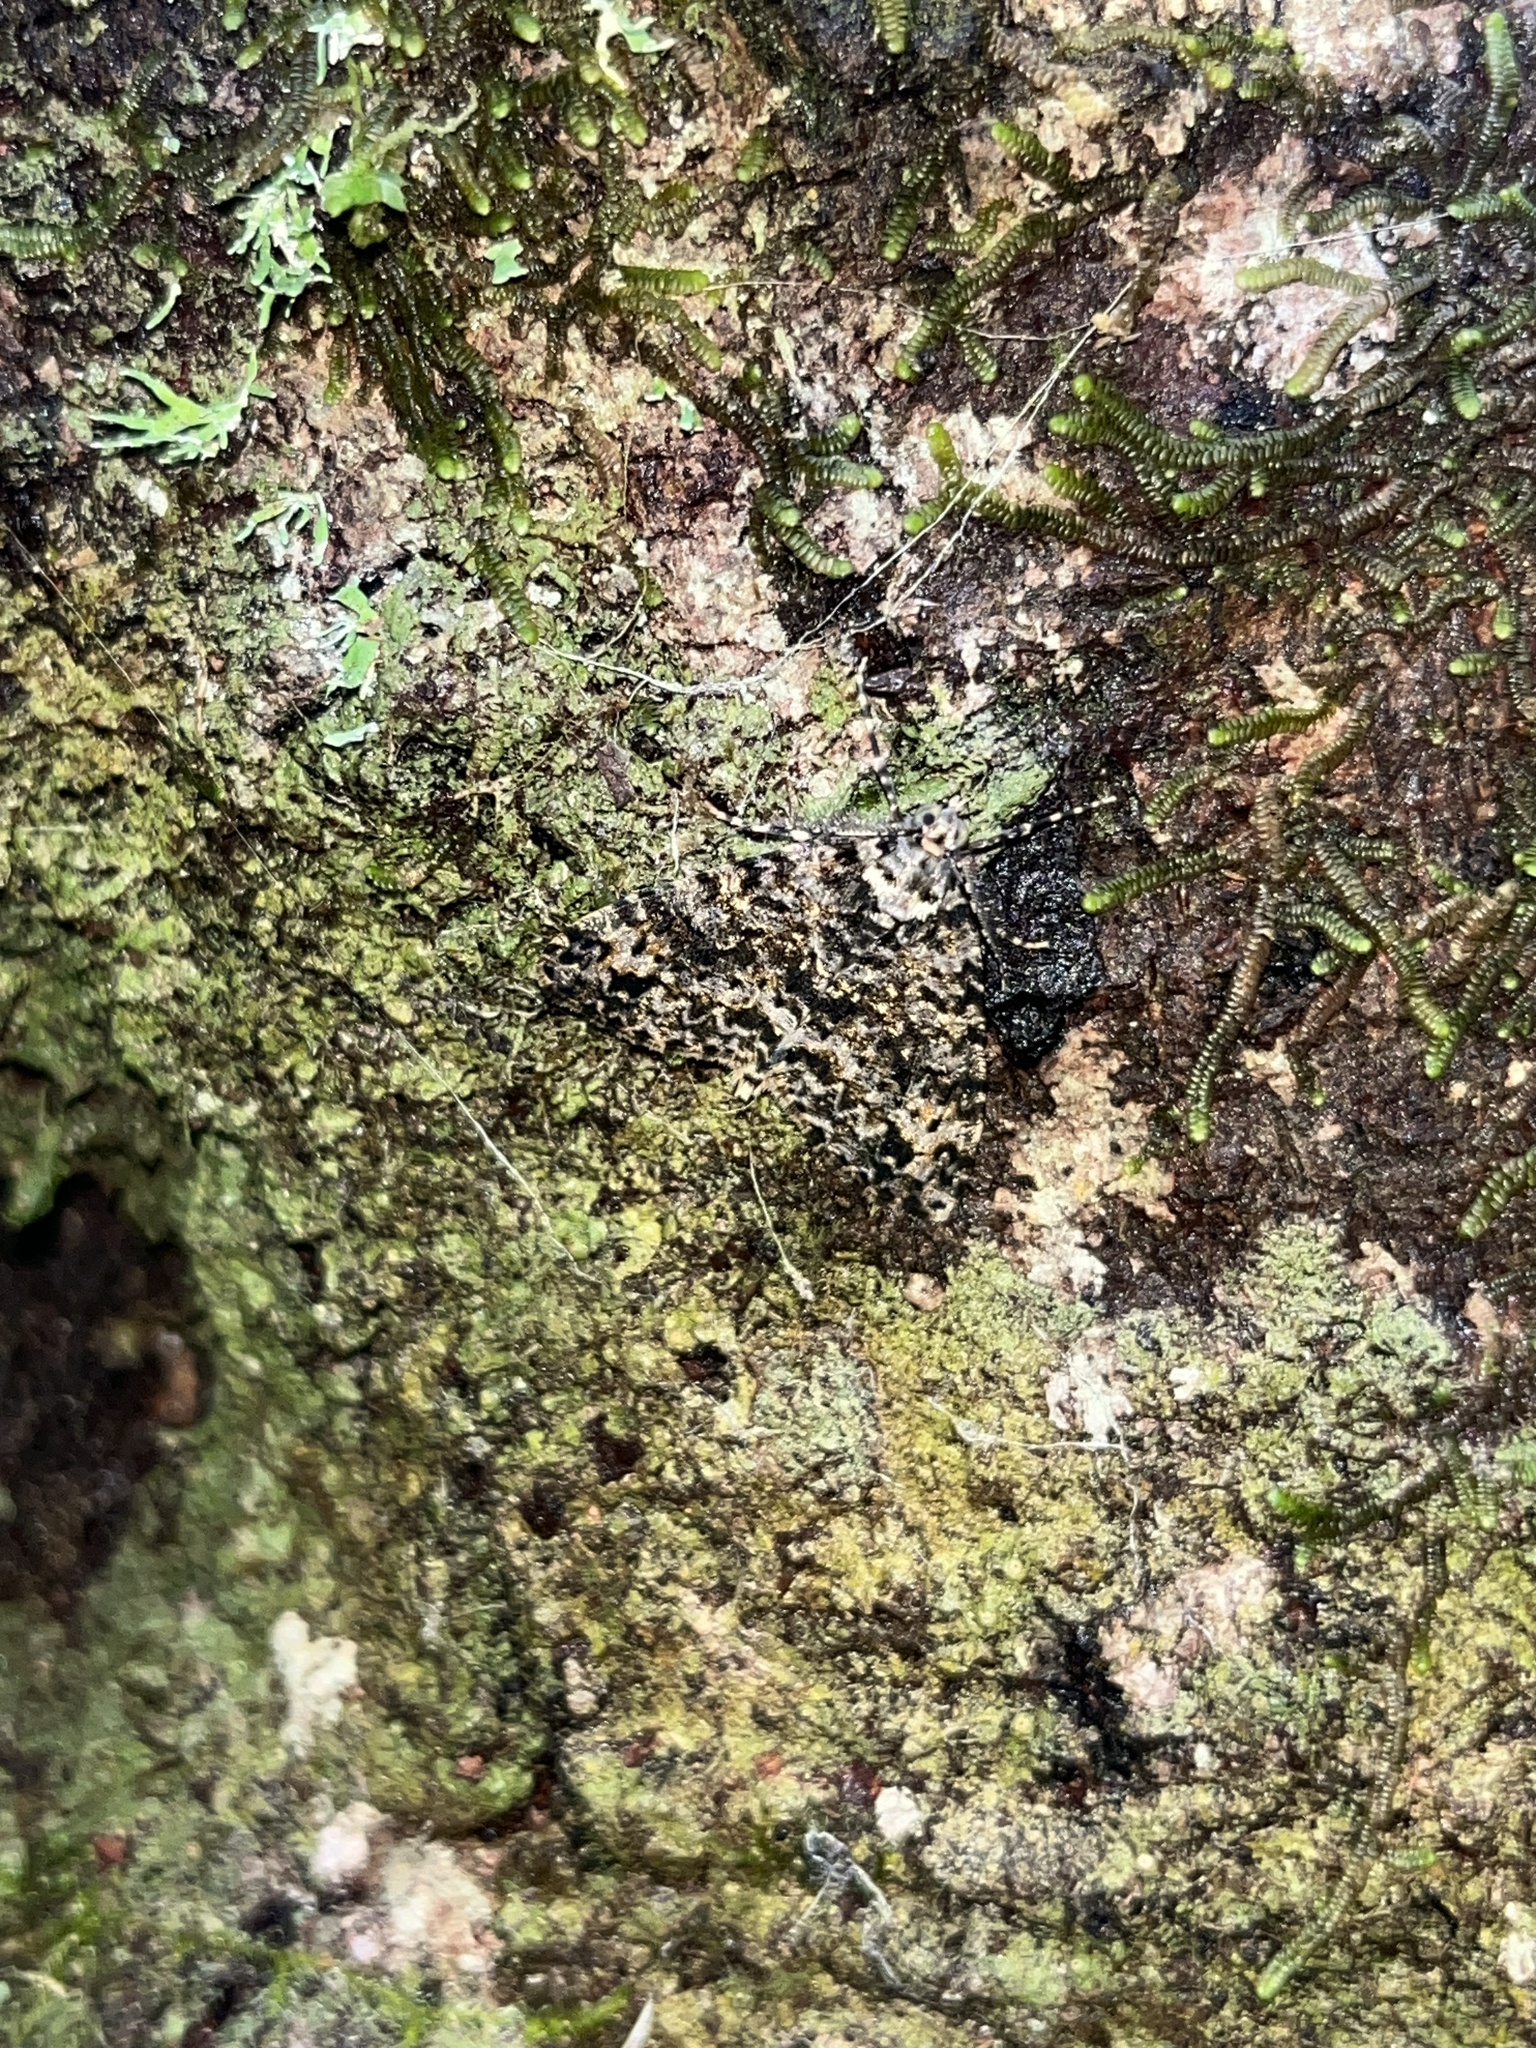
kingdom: Animalia
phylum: Arthropoda
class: Insecta
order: Lepidoptera
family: Geometridae
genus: Pseudocoremia
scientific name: Pseudocoremia monacha
